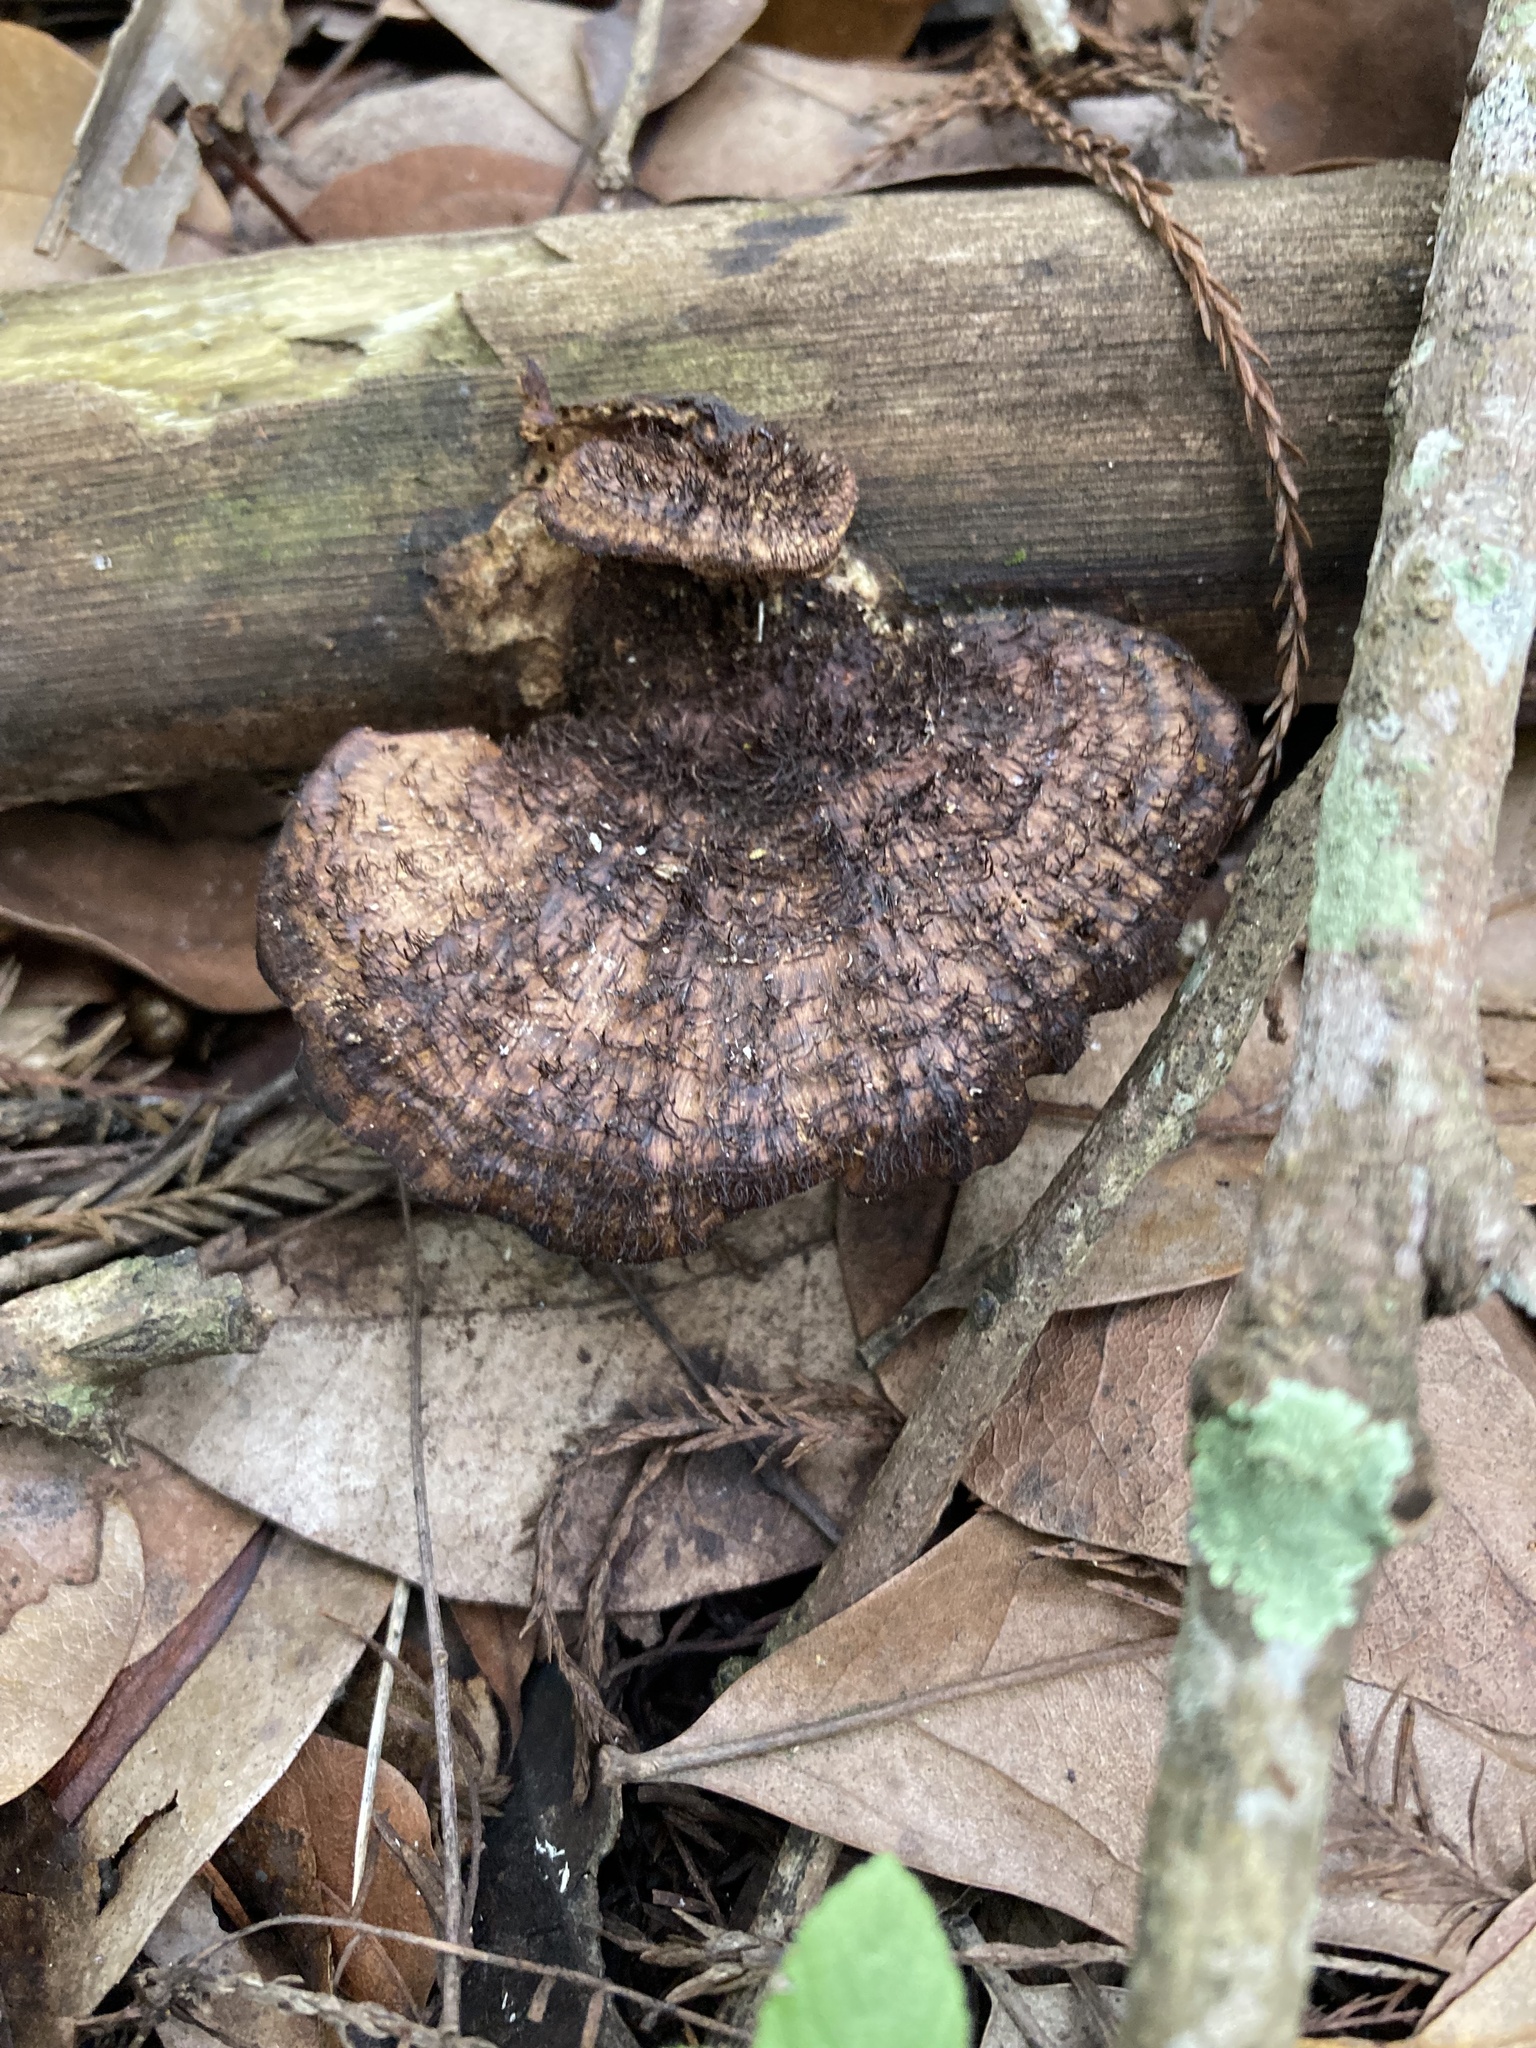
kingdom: Fungi
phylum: Basidiomycota
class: Agaricomycetes
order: Polyporales
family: Cerrenaceae
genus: Cerrena
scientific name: Cerrena hydnoides
